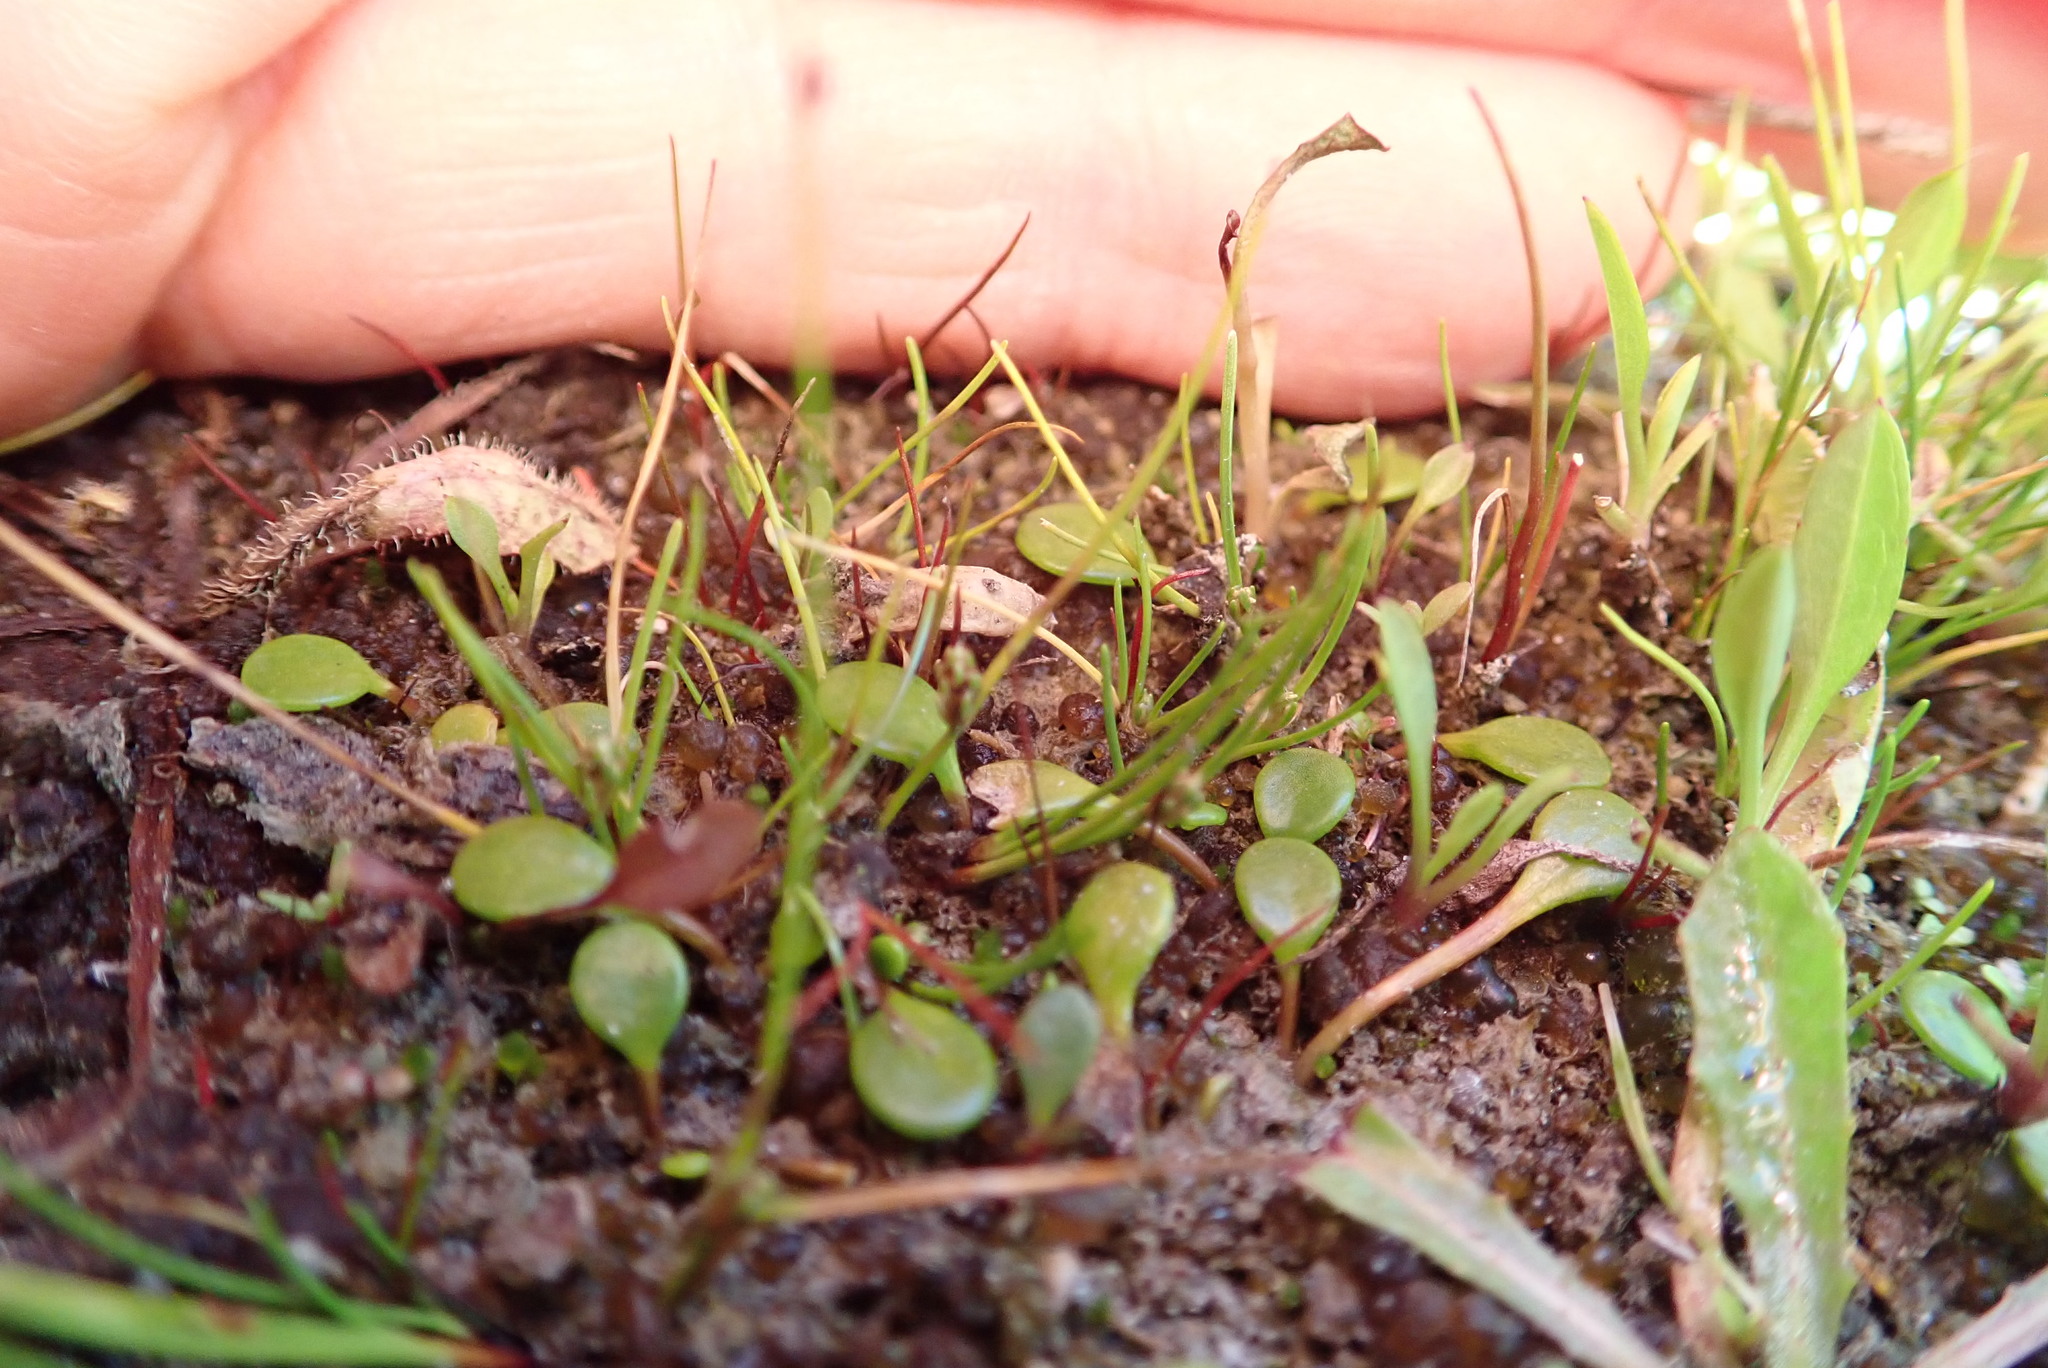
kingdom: Plantae
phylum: Tracheophyta
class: Magnoliopsida
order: Asterales
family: Goodeniaceae
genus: Goodenia
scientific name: Goodenia heenanii
